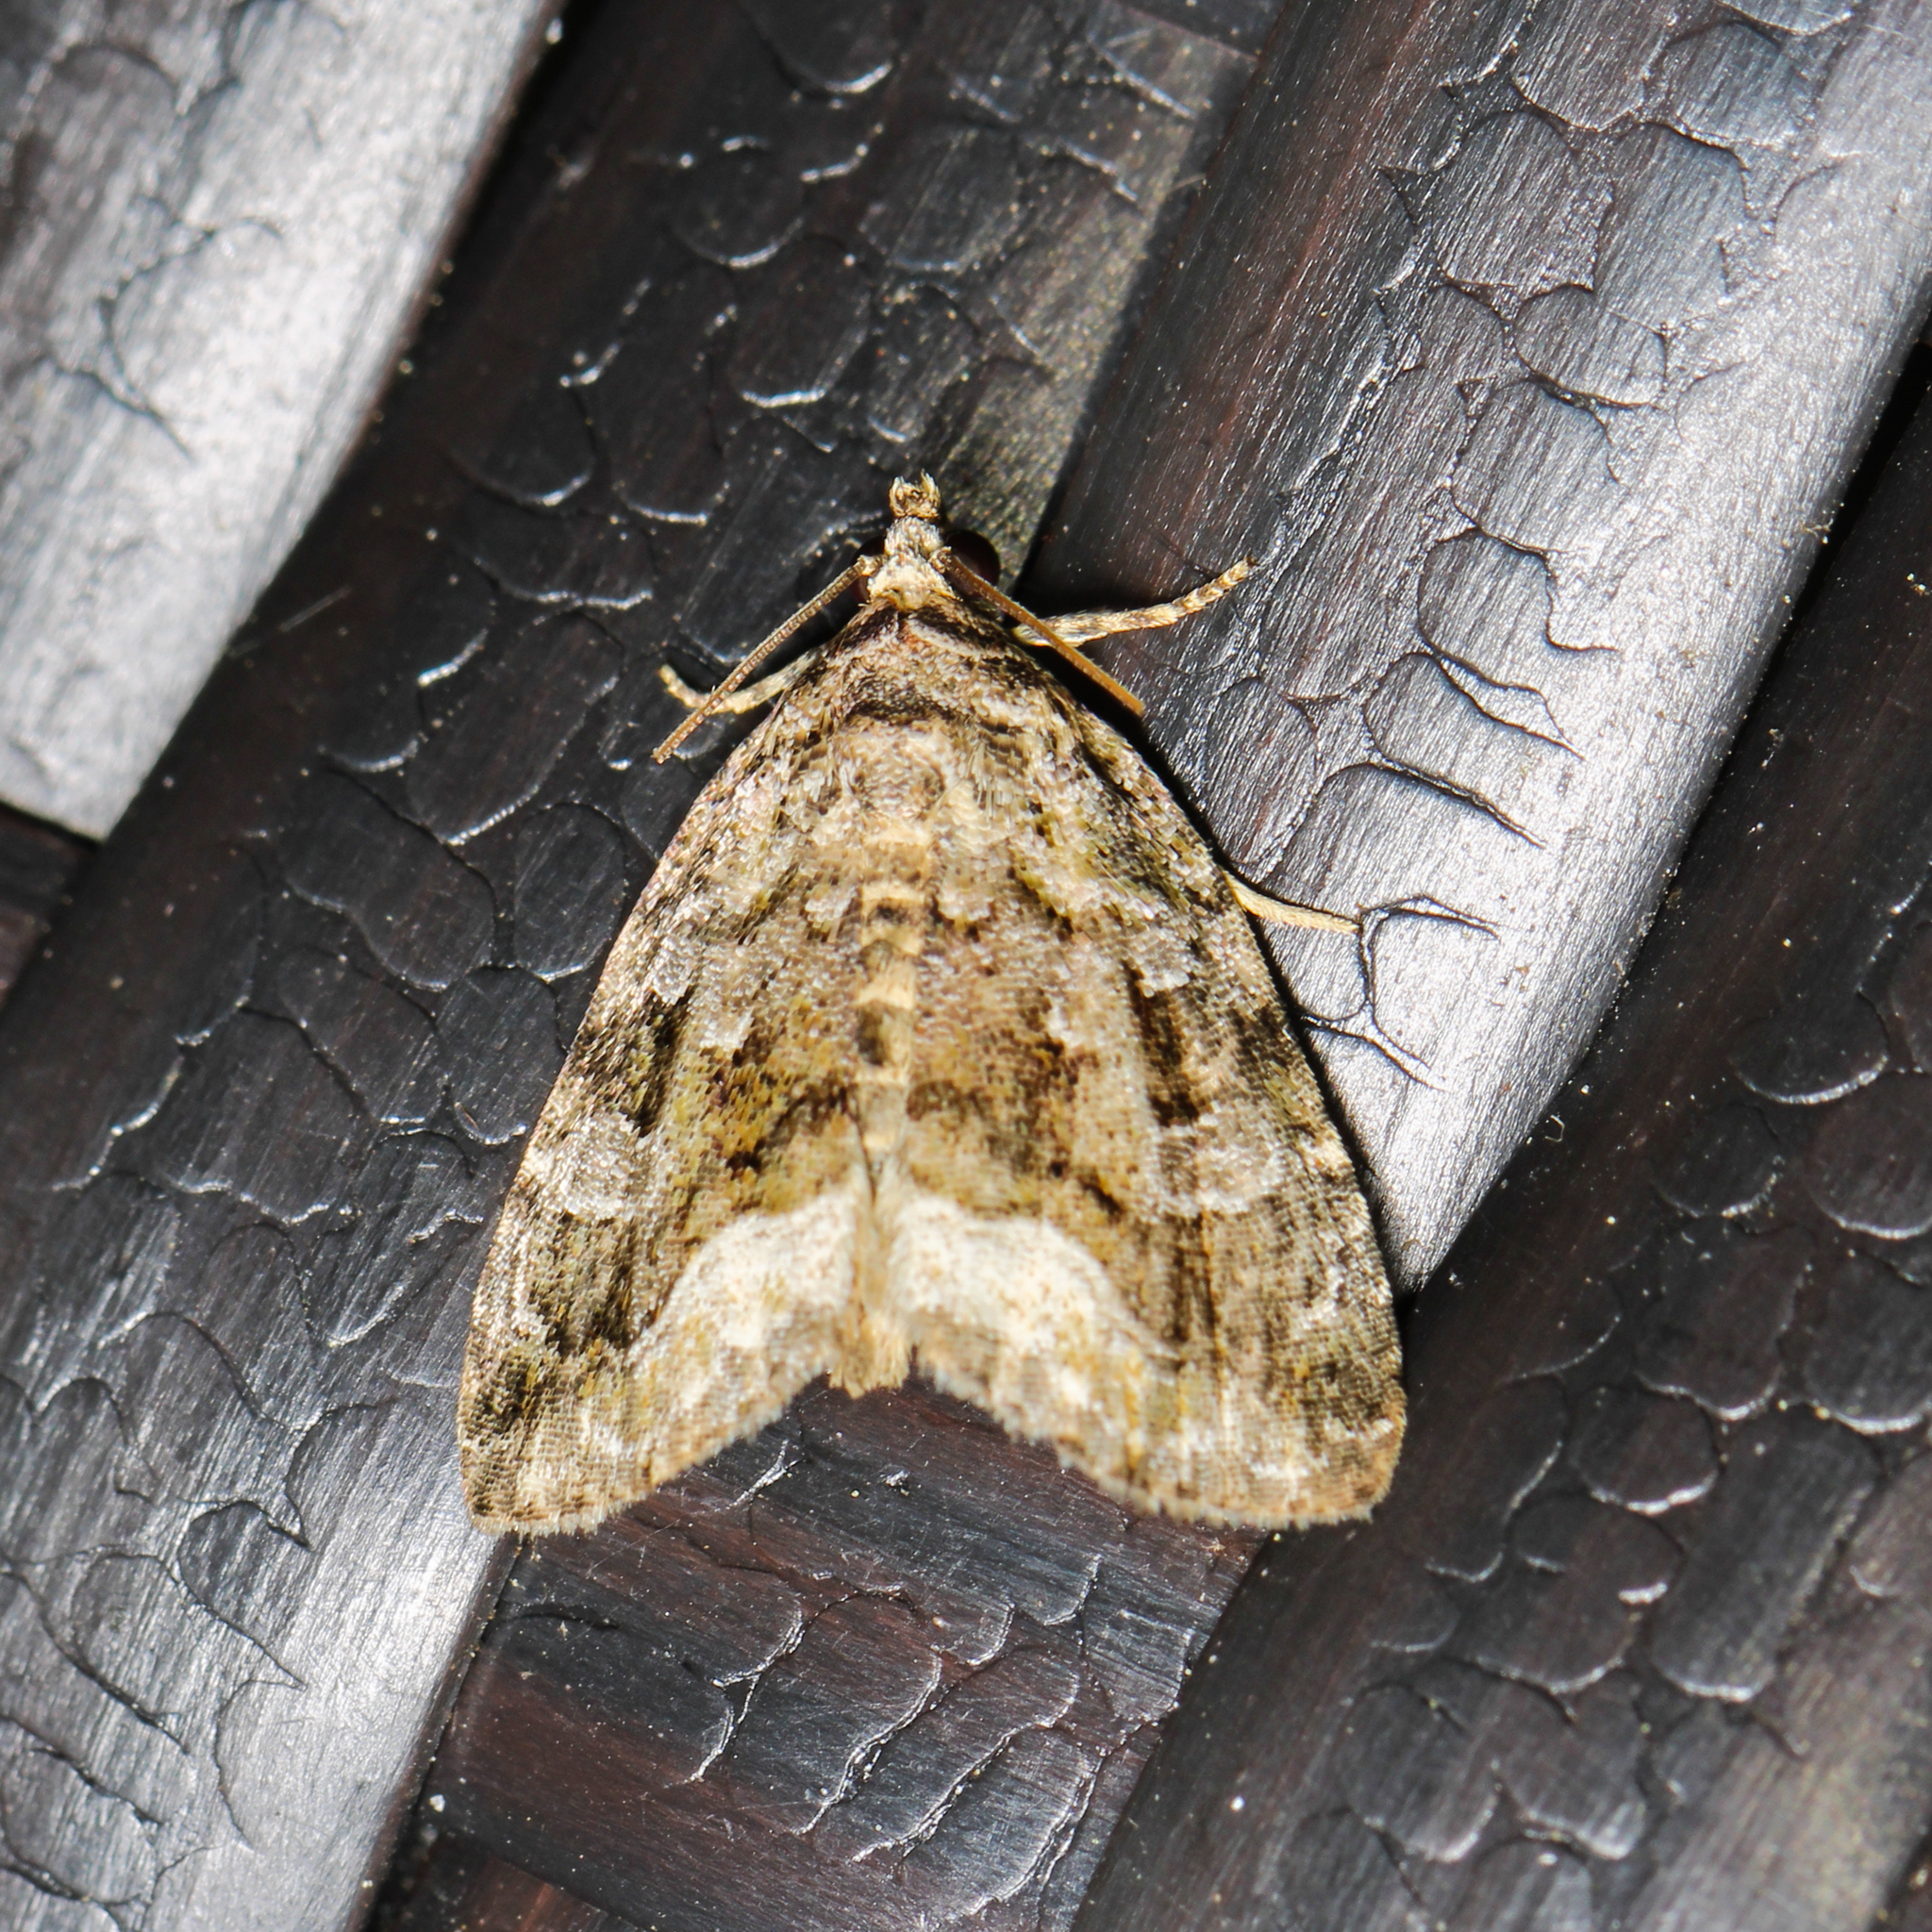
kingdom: Animalia
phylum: Arthropoda
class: Insecta
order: Lepidoptera
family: Noctuidae
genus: Protodeltote
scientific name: Protodeltote muscosula
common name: Large mossy glyph
